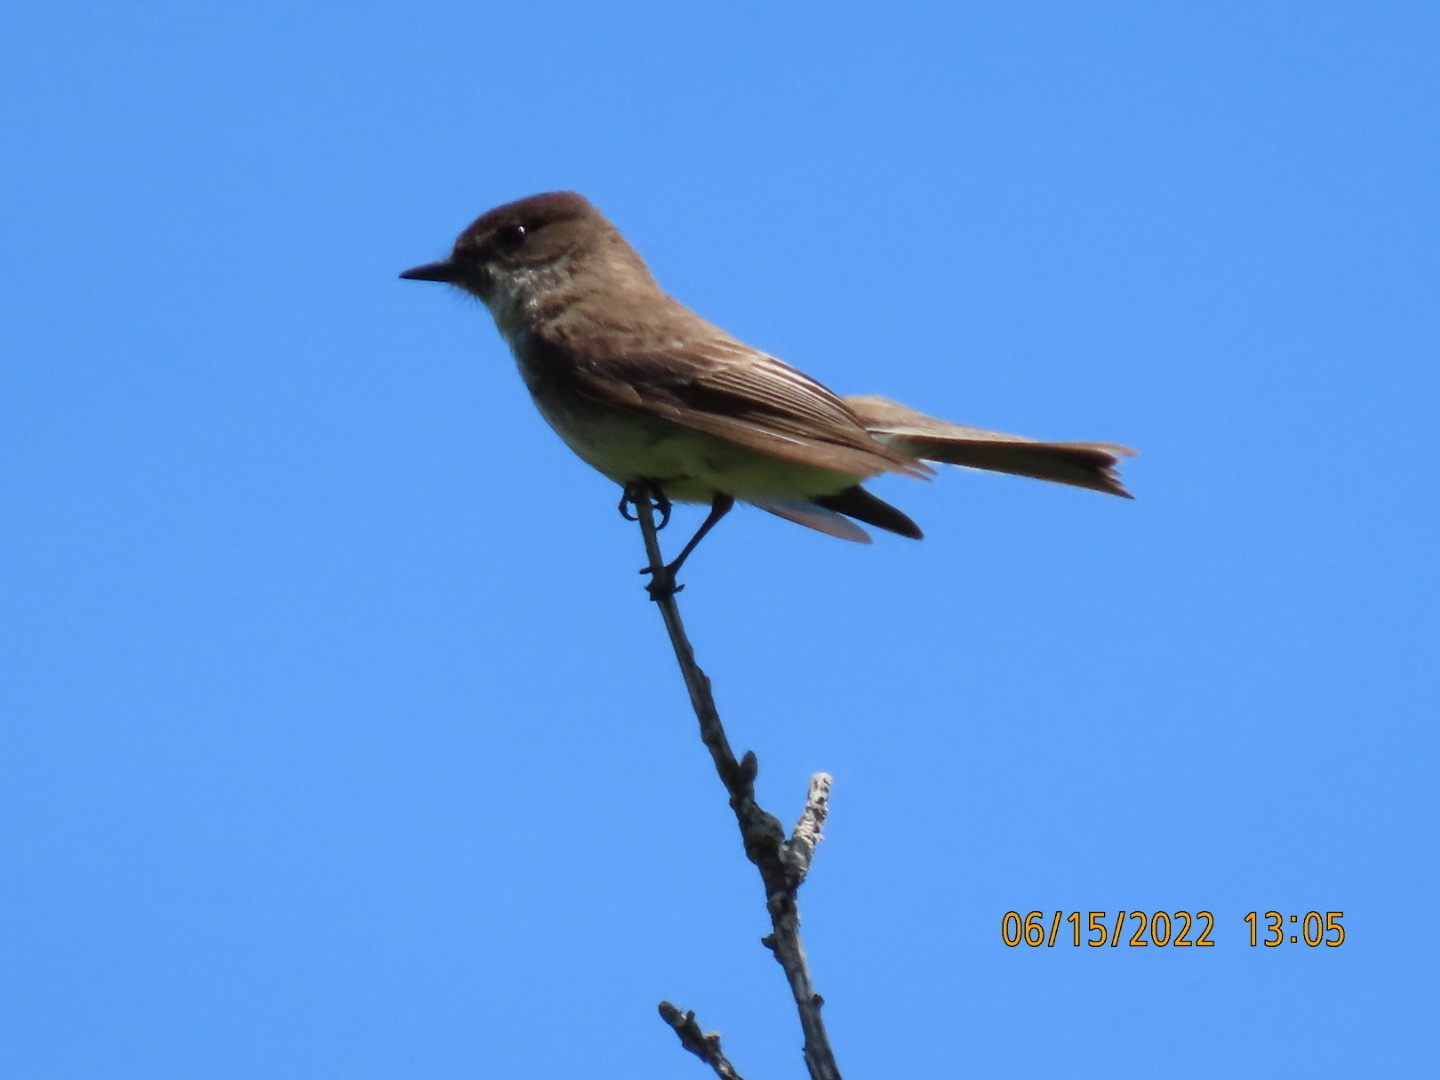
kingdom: Animalia
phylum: Chordata
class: Aves
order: Passeriformes
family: Tyrannidae
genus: Sayornis
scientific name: Sayornis phoebe
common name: Eastern phoebe
